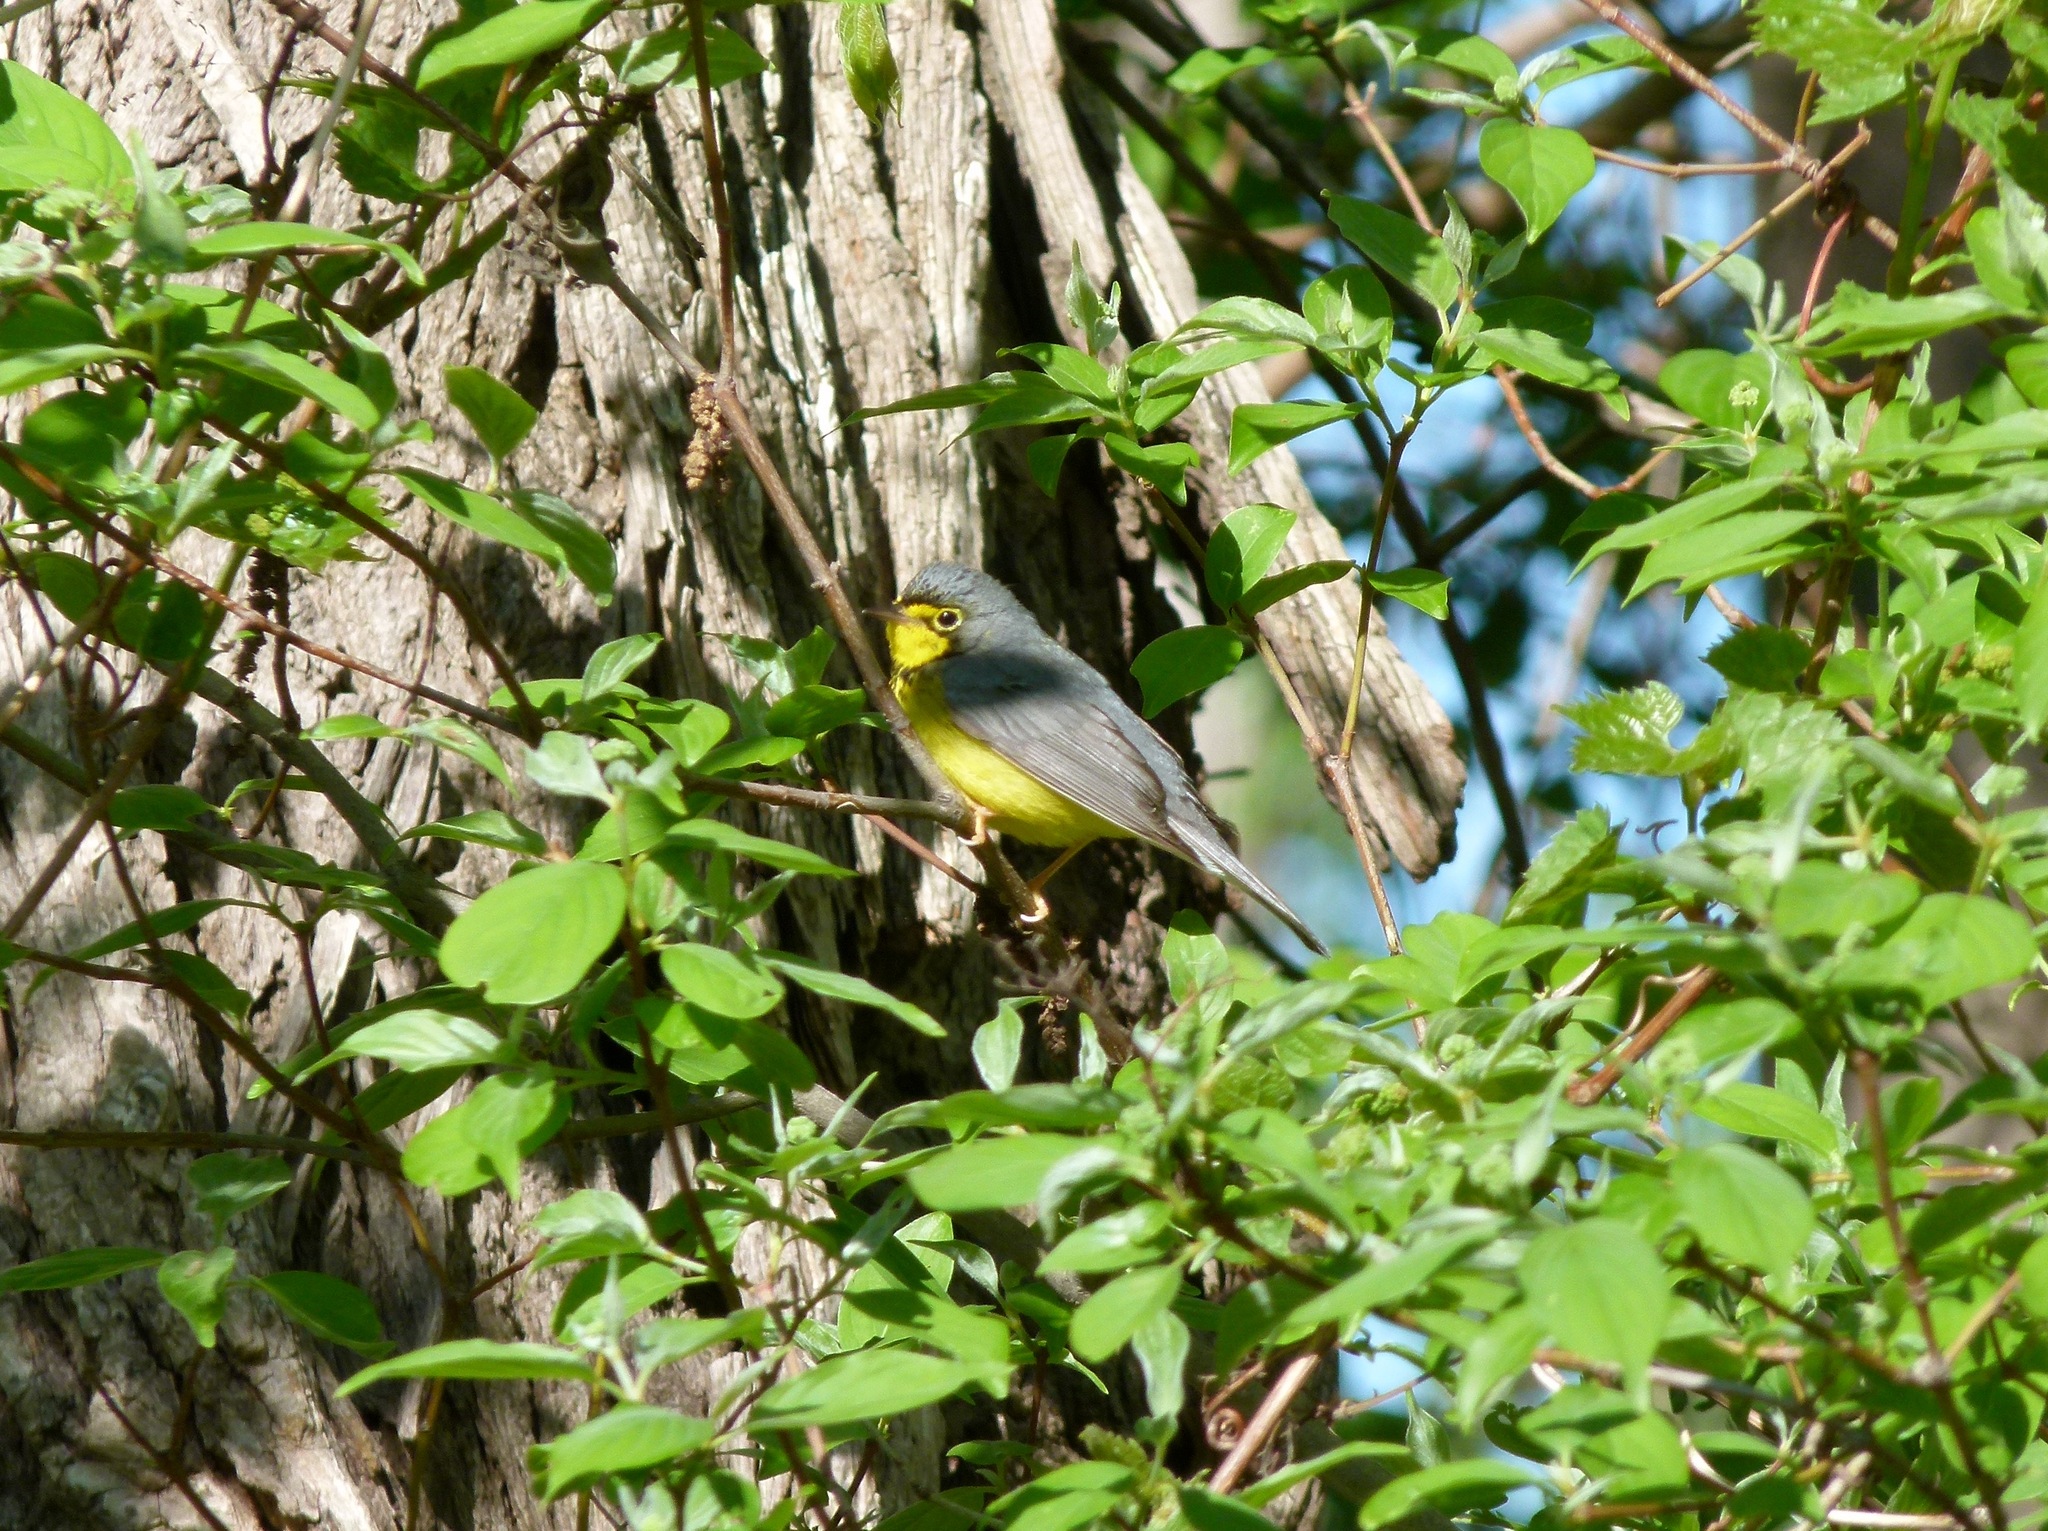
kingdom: Animalia
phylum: Chordata
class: Aves
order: Passeriformes
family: Parulidae
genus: Cardellina
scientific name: Cardellina canadensis
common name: Canada warbler
